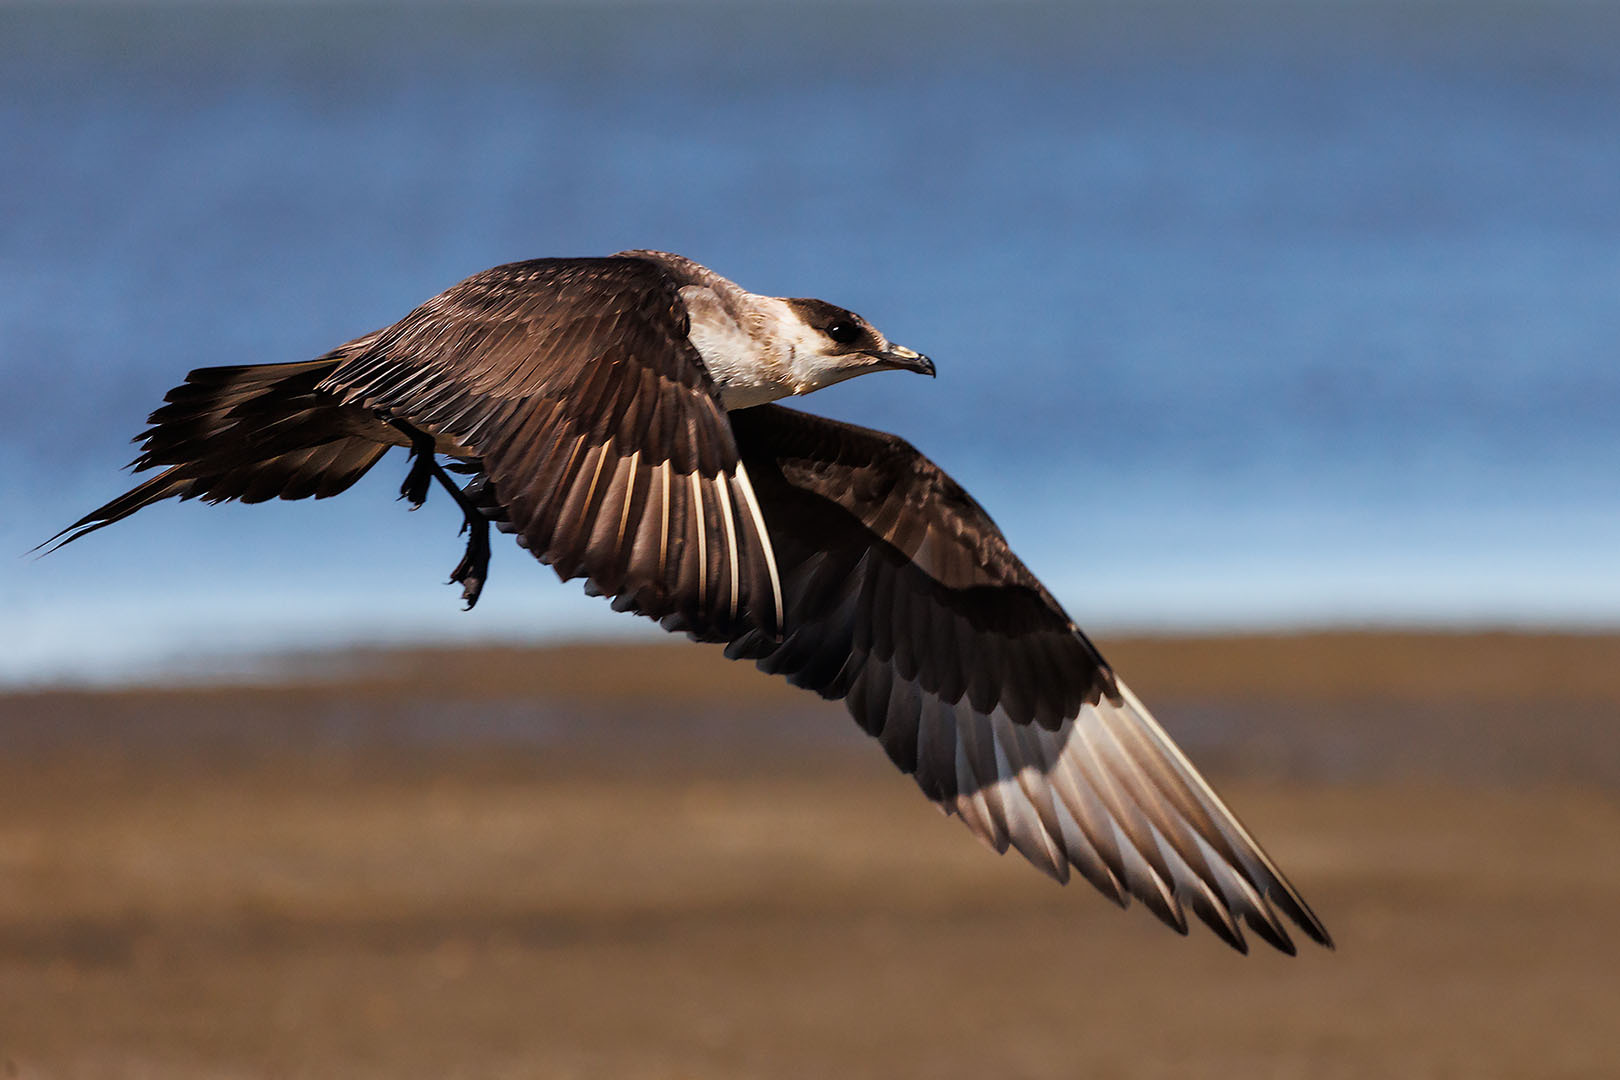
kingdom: Animalia
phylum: Chordata
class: Aves
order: Charadriiformes
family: Stercorariidae
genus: Stercorarius
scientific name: Stercorarius parasiticus
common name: Parasitic jaeger
